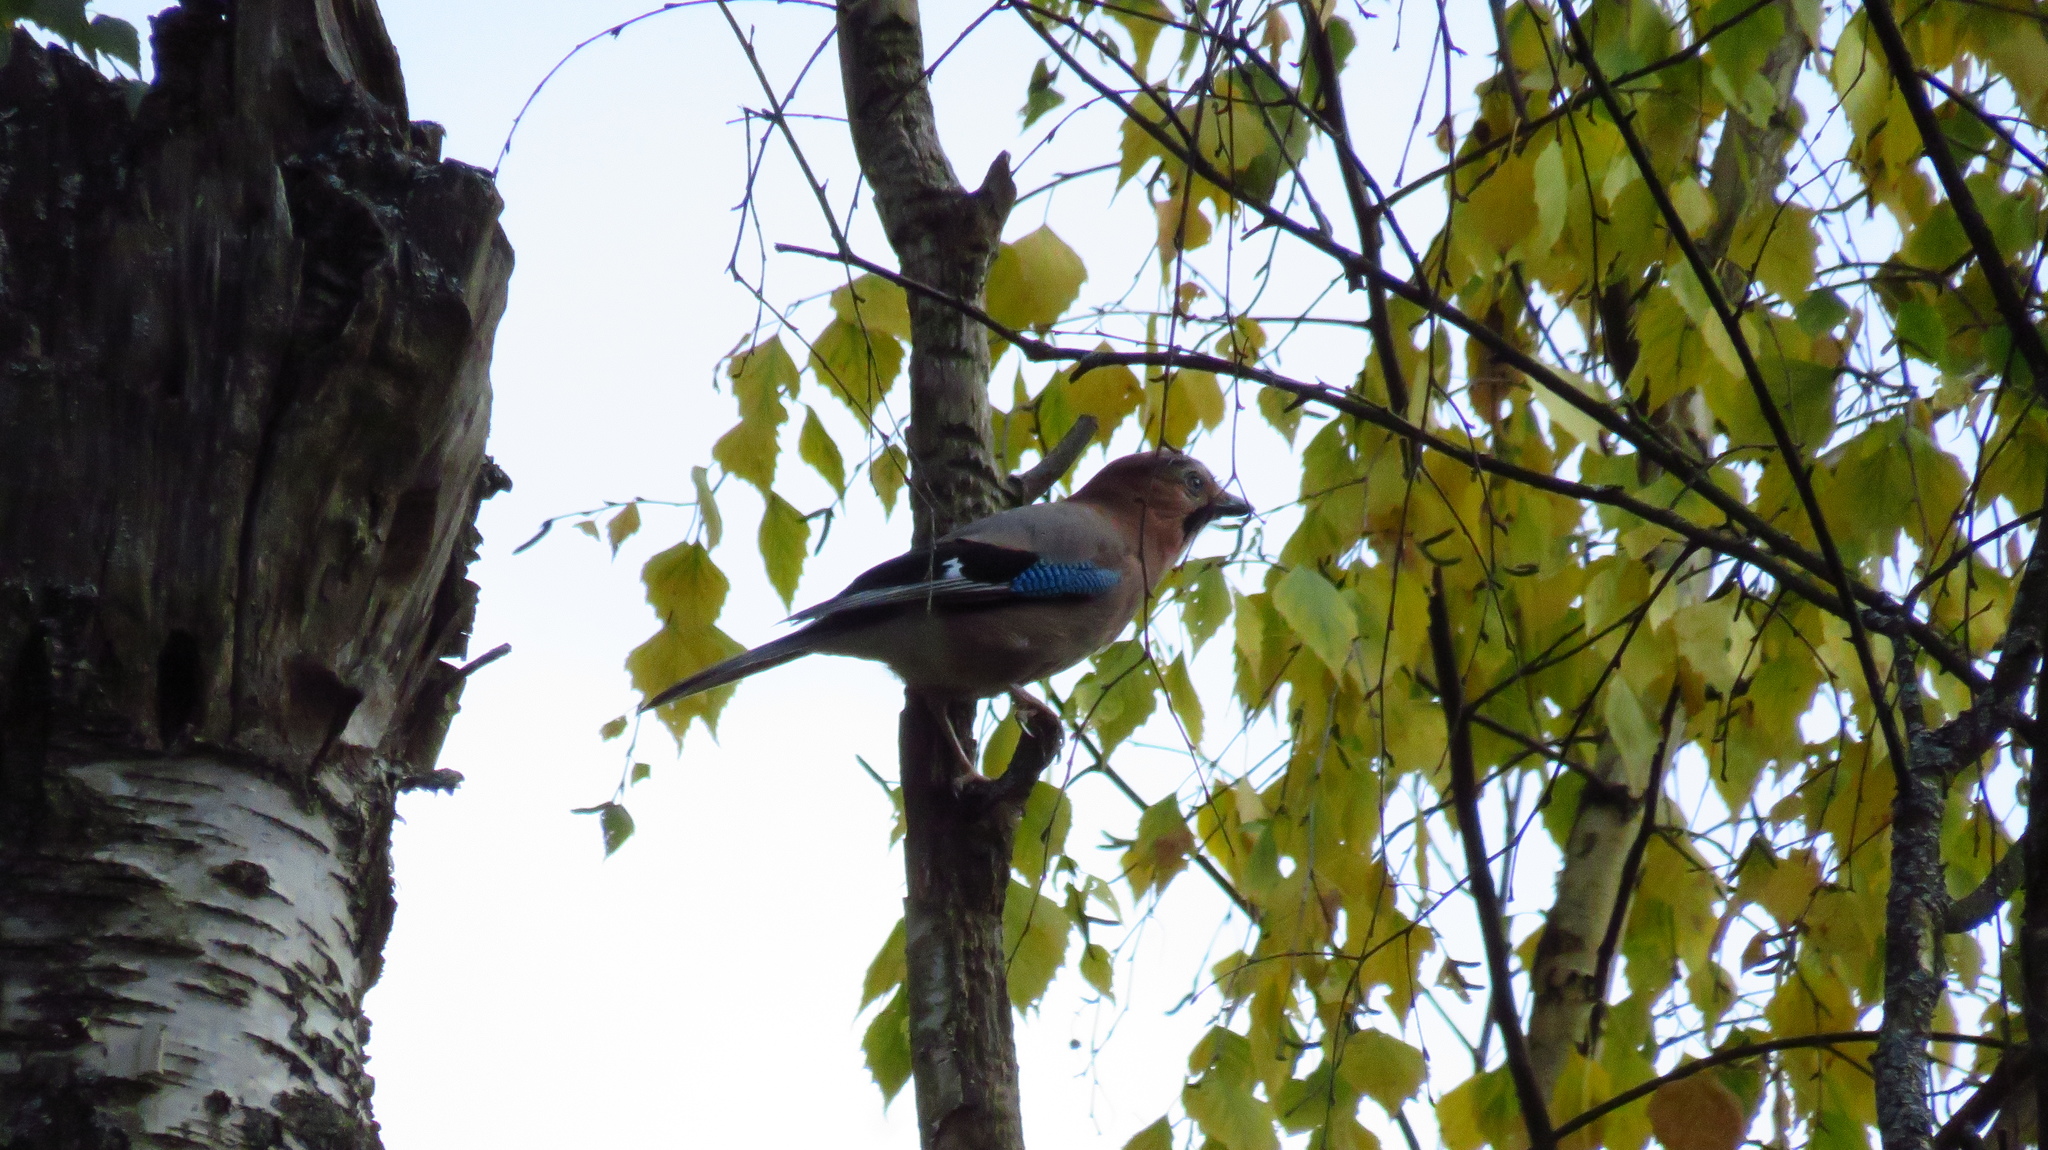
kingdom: Animalia
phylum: Chordata
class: Aves
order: Passeriformes
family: Corvidae
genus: Garrulus
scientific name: Garrulus glandarius
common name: Eurasian jay
